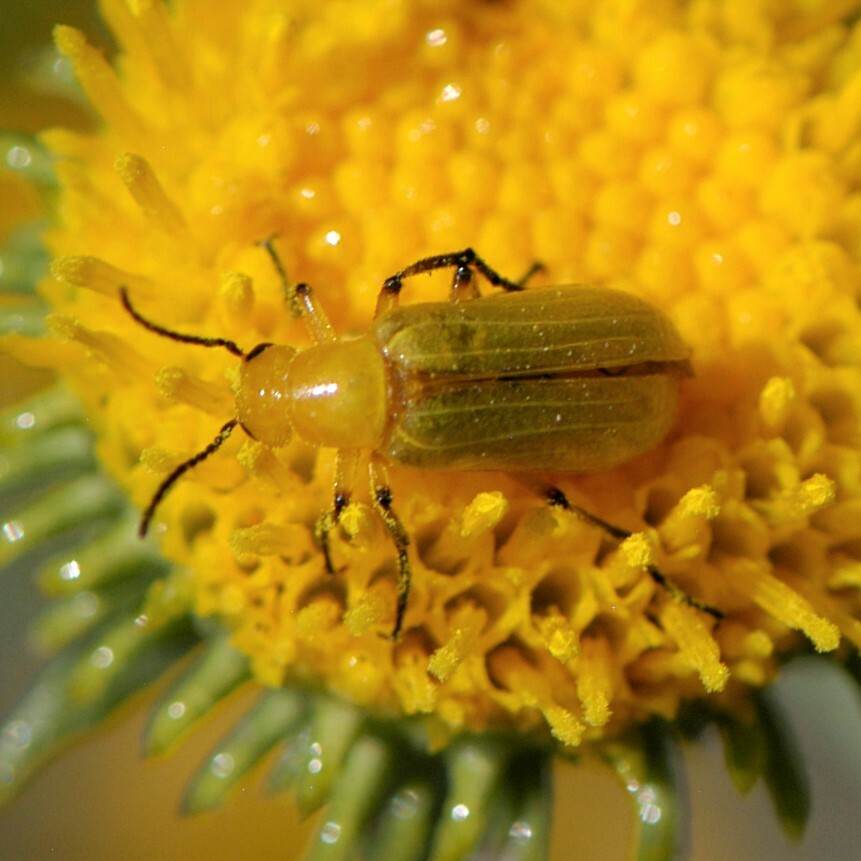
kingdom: Animalia
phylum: Arthropoda
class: Insecta
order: Coleoptera
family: Meloidae
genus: Zonitis
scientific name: Zonitis sayi
